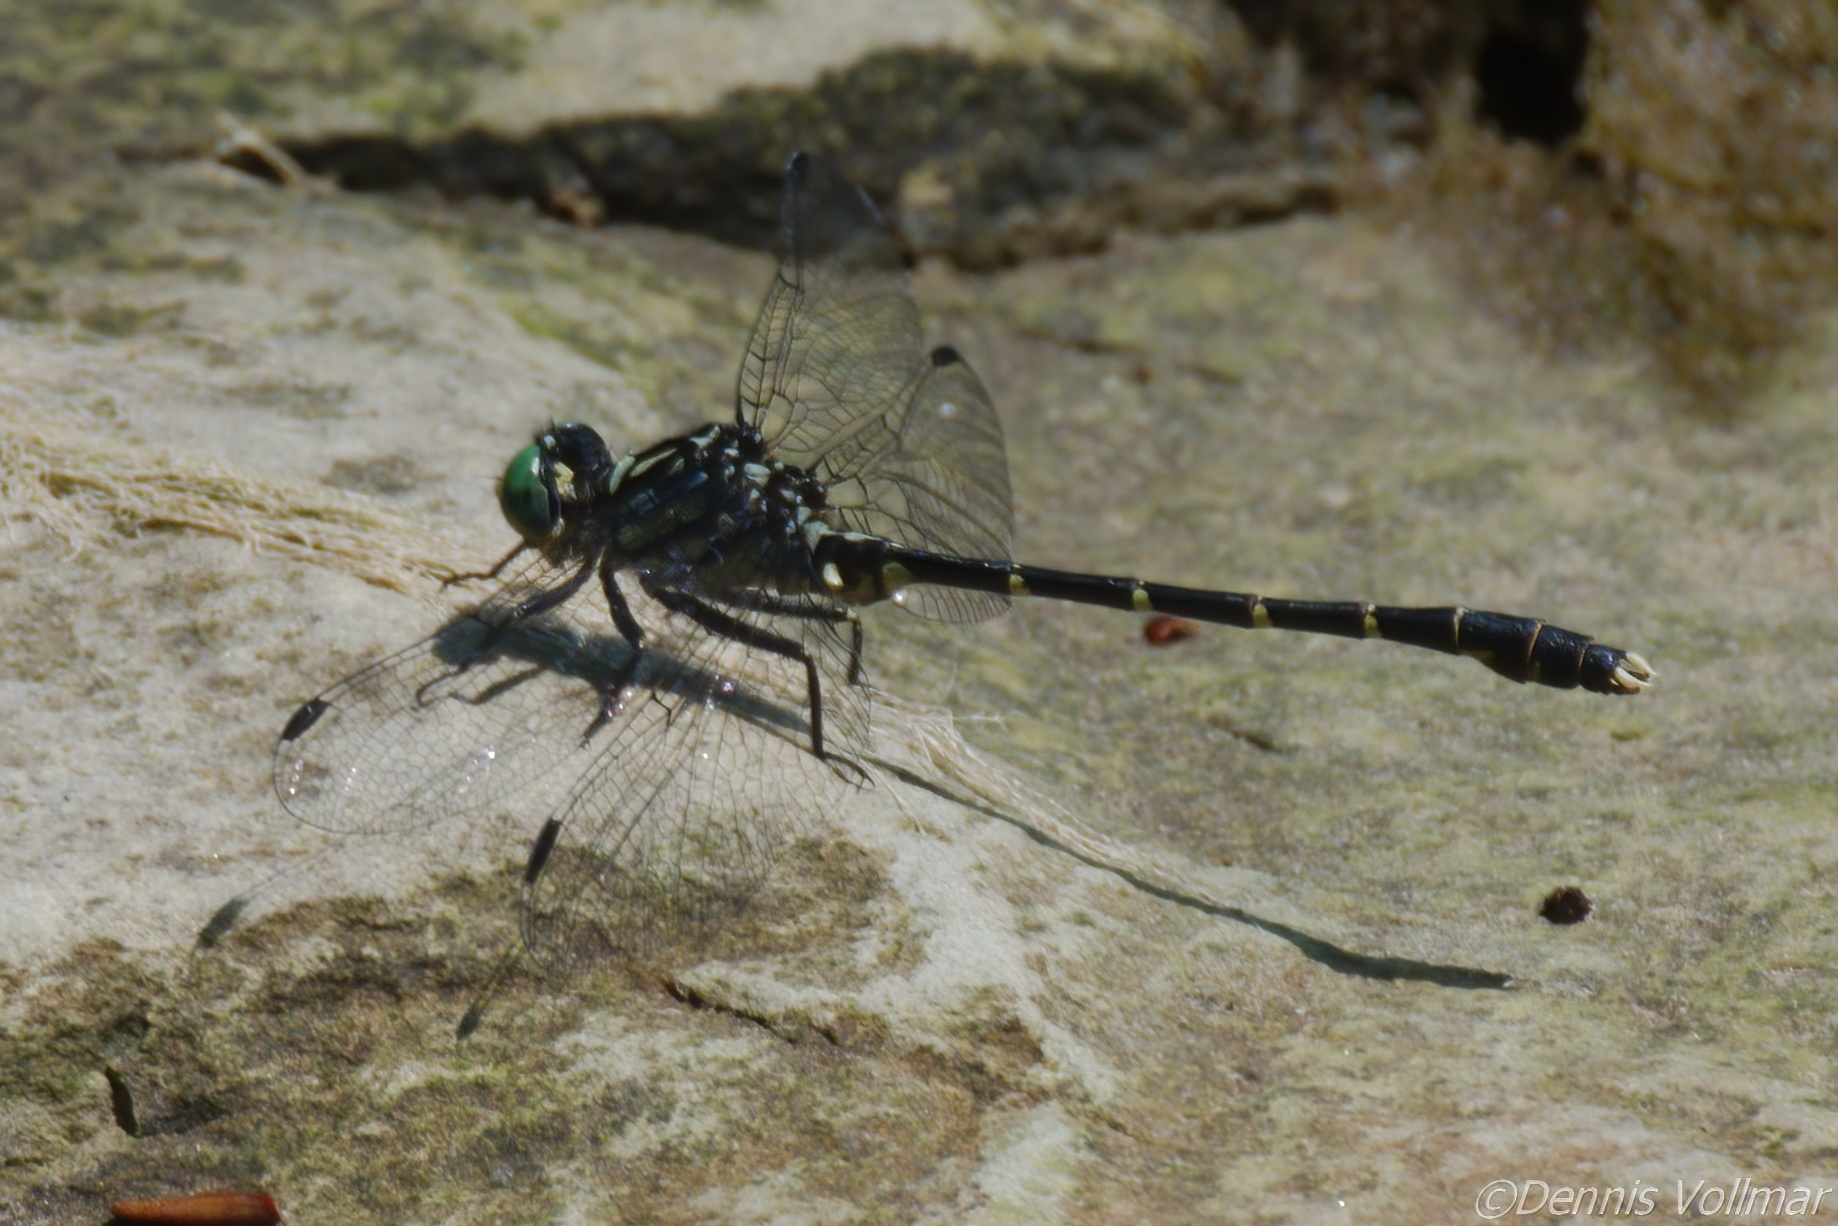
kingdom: Animalia
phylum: Arthropoda
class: Insecta
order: Odonata
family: Gomphidae
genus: Stylogomphus
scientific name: Stylogomphus albistylus
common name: Eastern least clubtail
